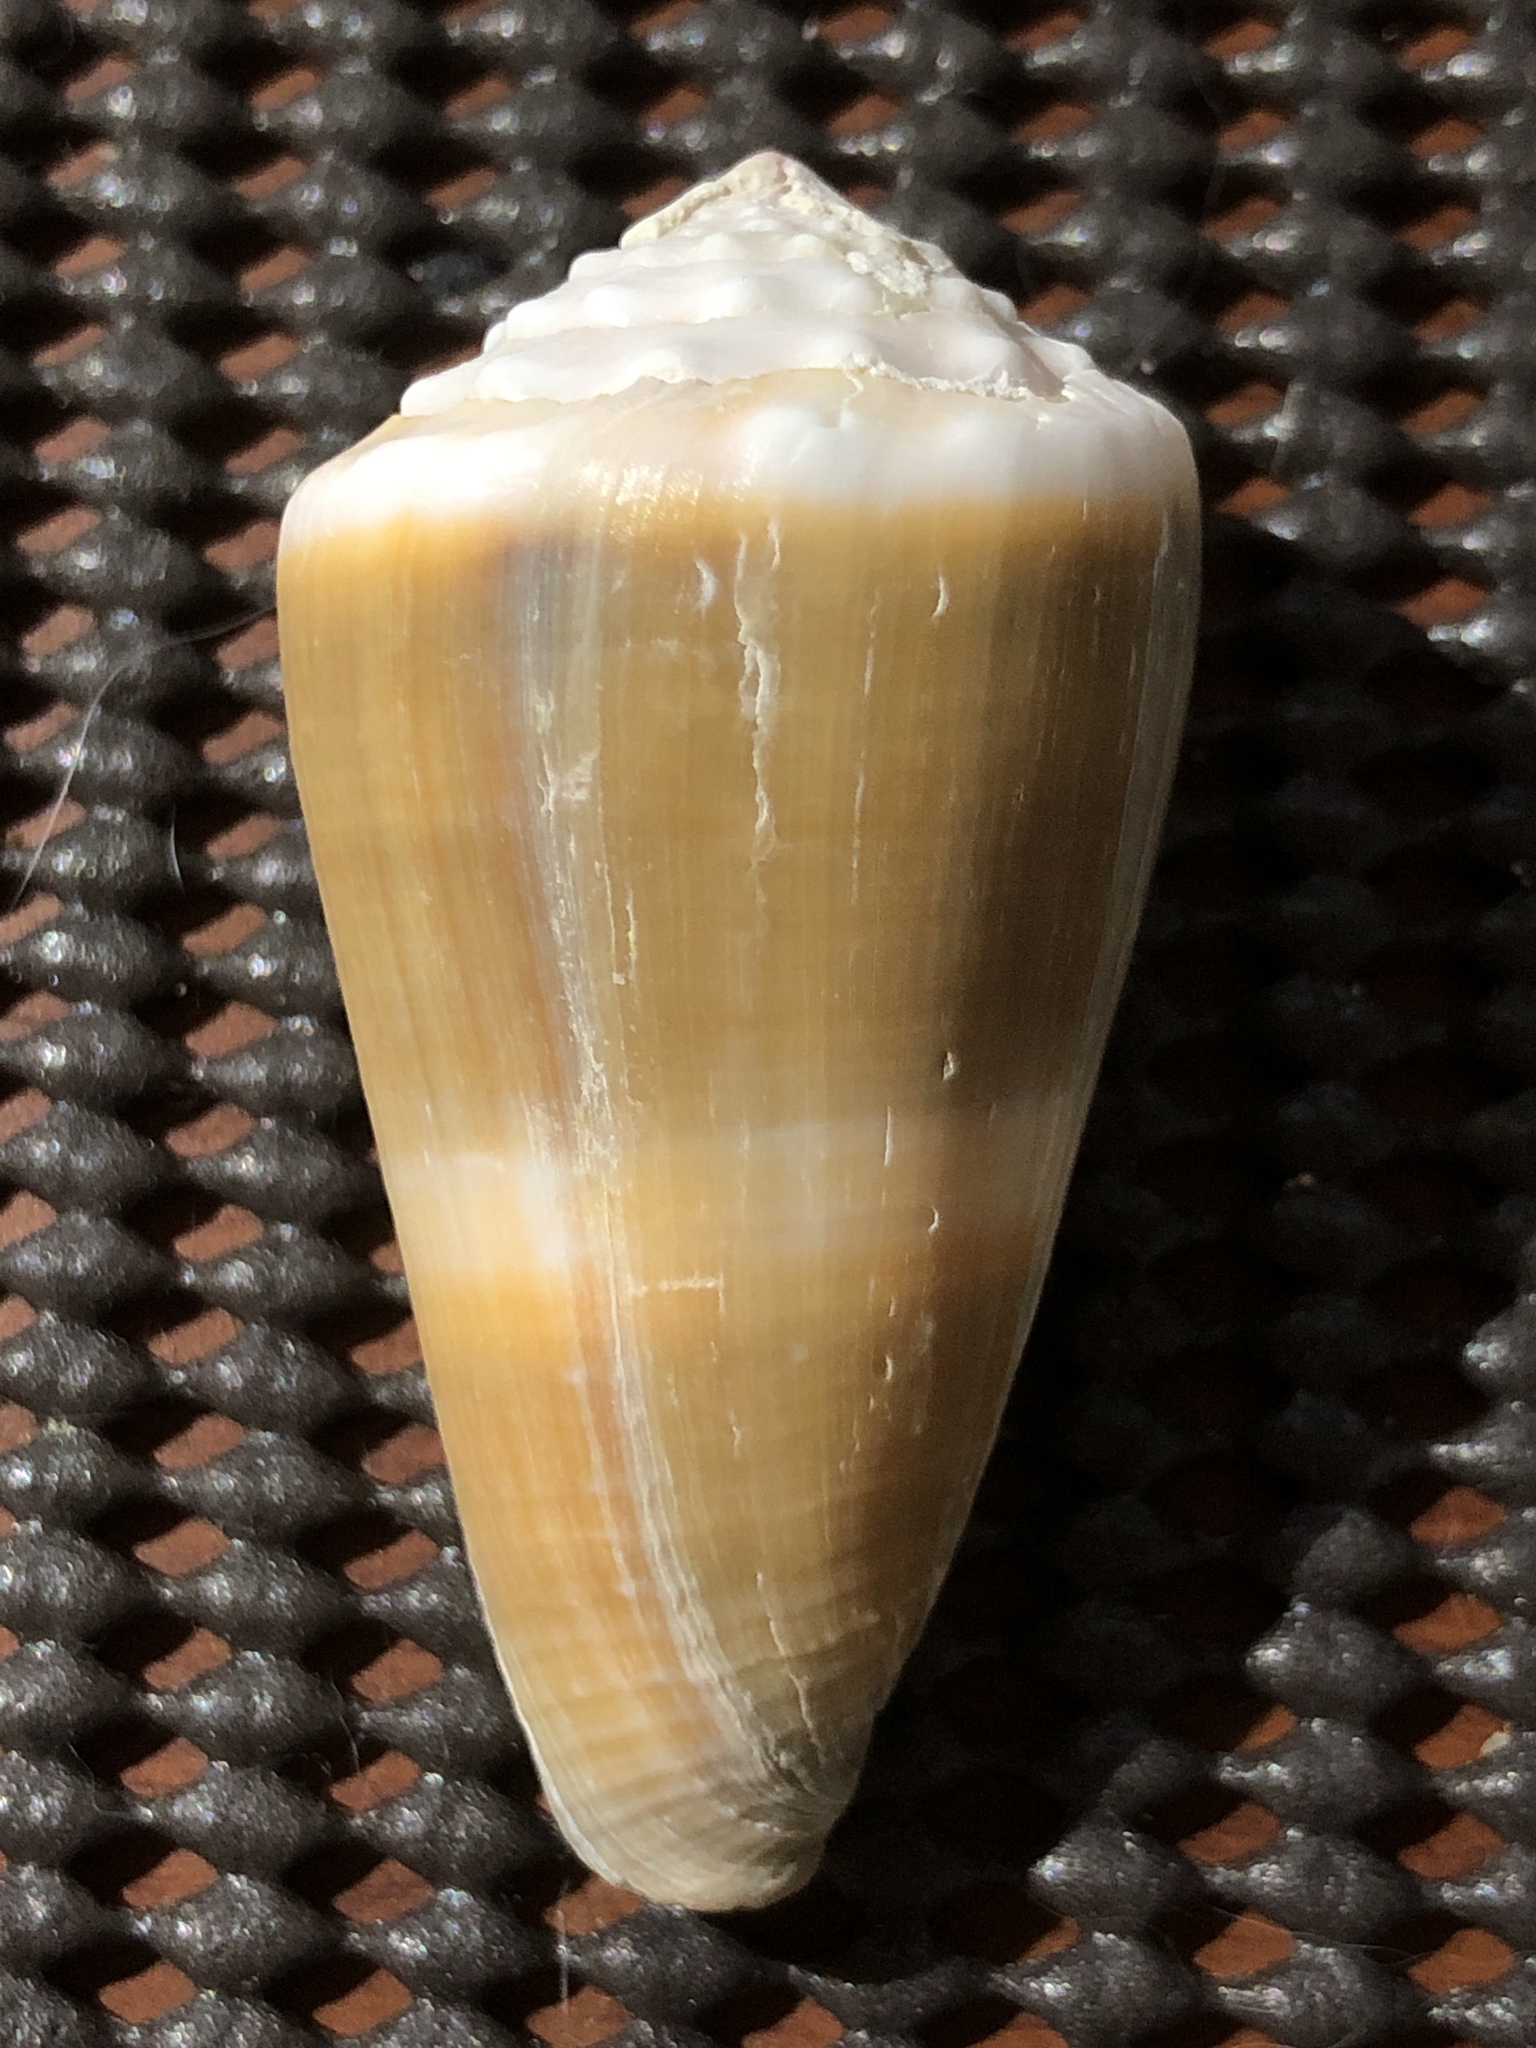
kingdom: Animalia
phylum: Mollusca
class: Gastropoda
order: Neogastropoda
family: Conidae
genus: Conus
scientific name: Conus lividus
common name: Livid cone
